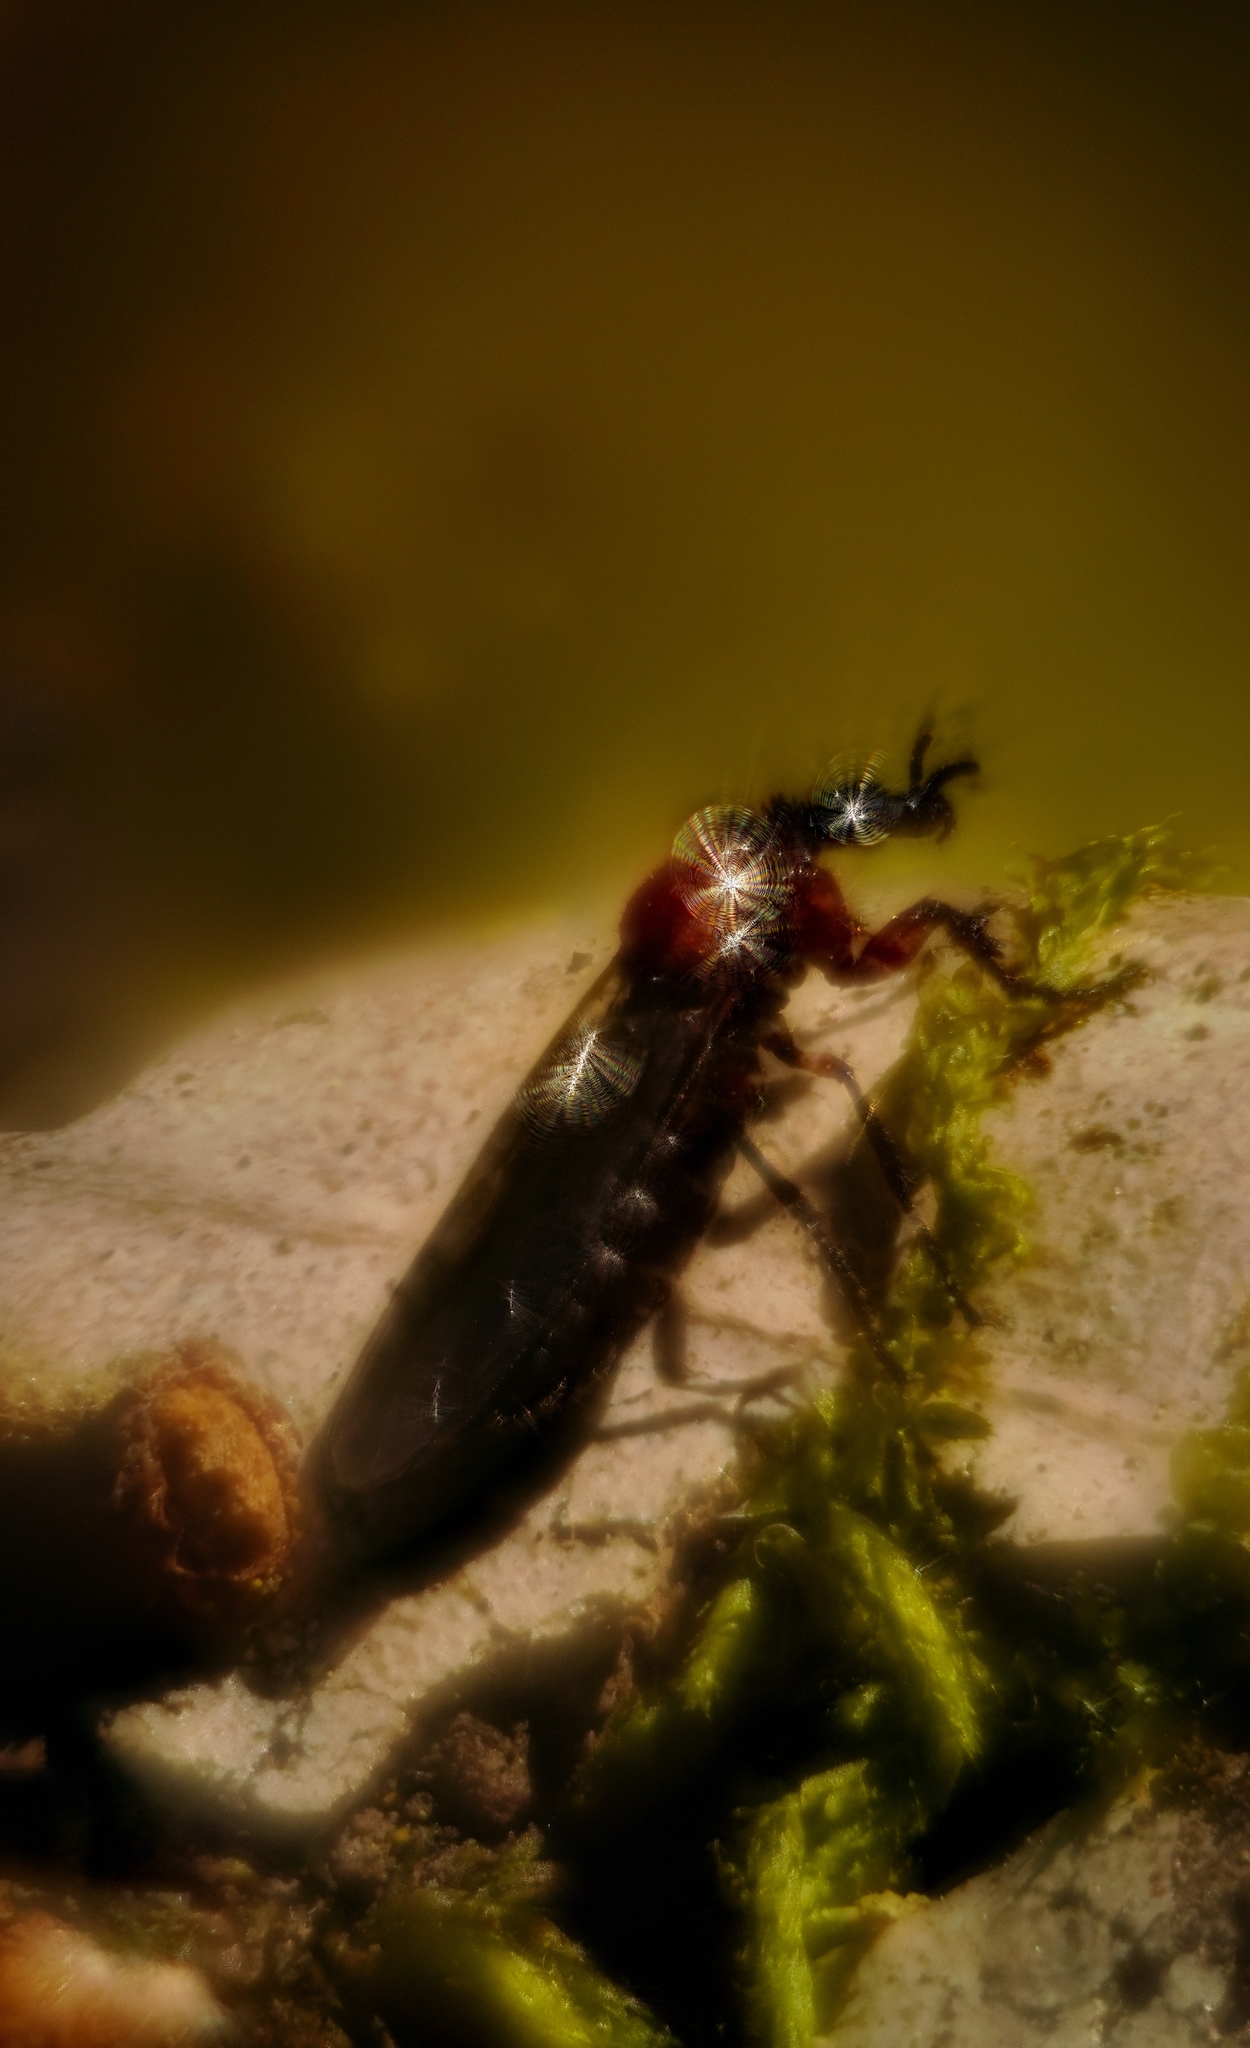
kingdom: Animalia
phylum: Arthropoda
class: Insecta
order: Diptera
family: Bibionidae
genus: Dilophus
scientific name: Dilophus strigilatus
